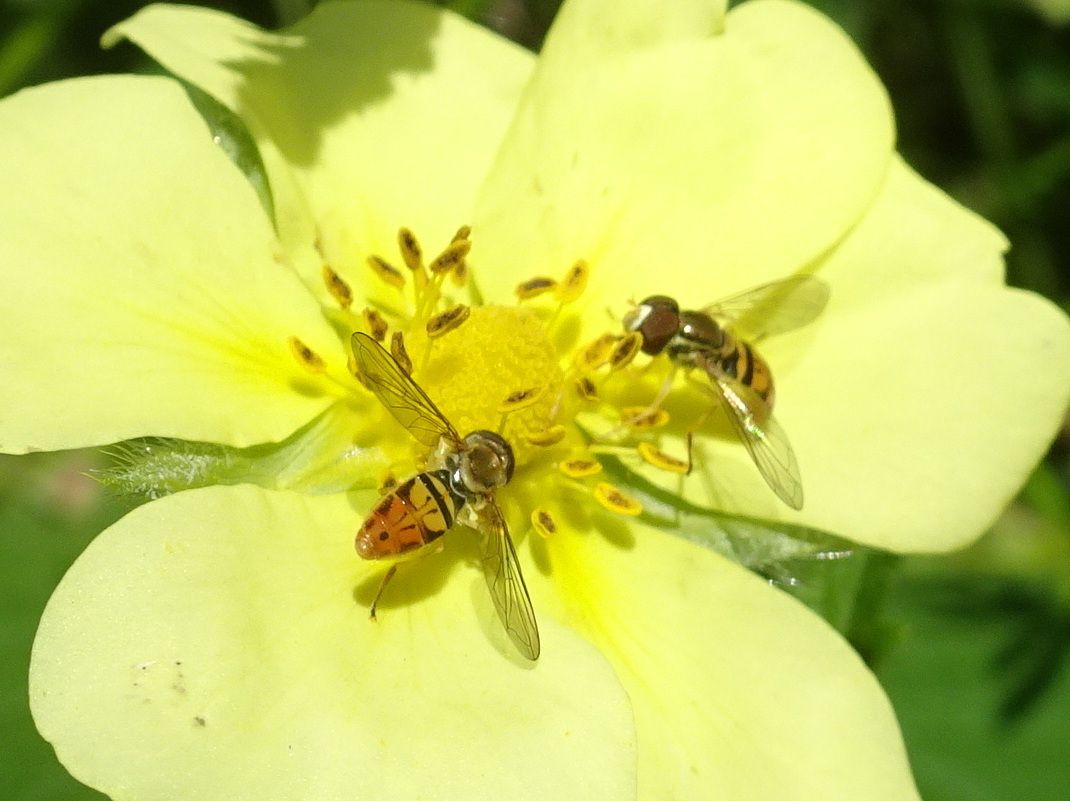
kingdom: Animalia
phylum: Arthropoda
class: Insecta
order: Diptera
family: Syrphidae
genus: Toxomerus
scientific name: Toxomerus marginatus
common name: Syrphid fly
